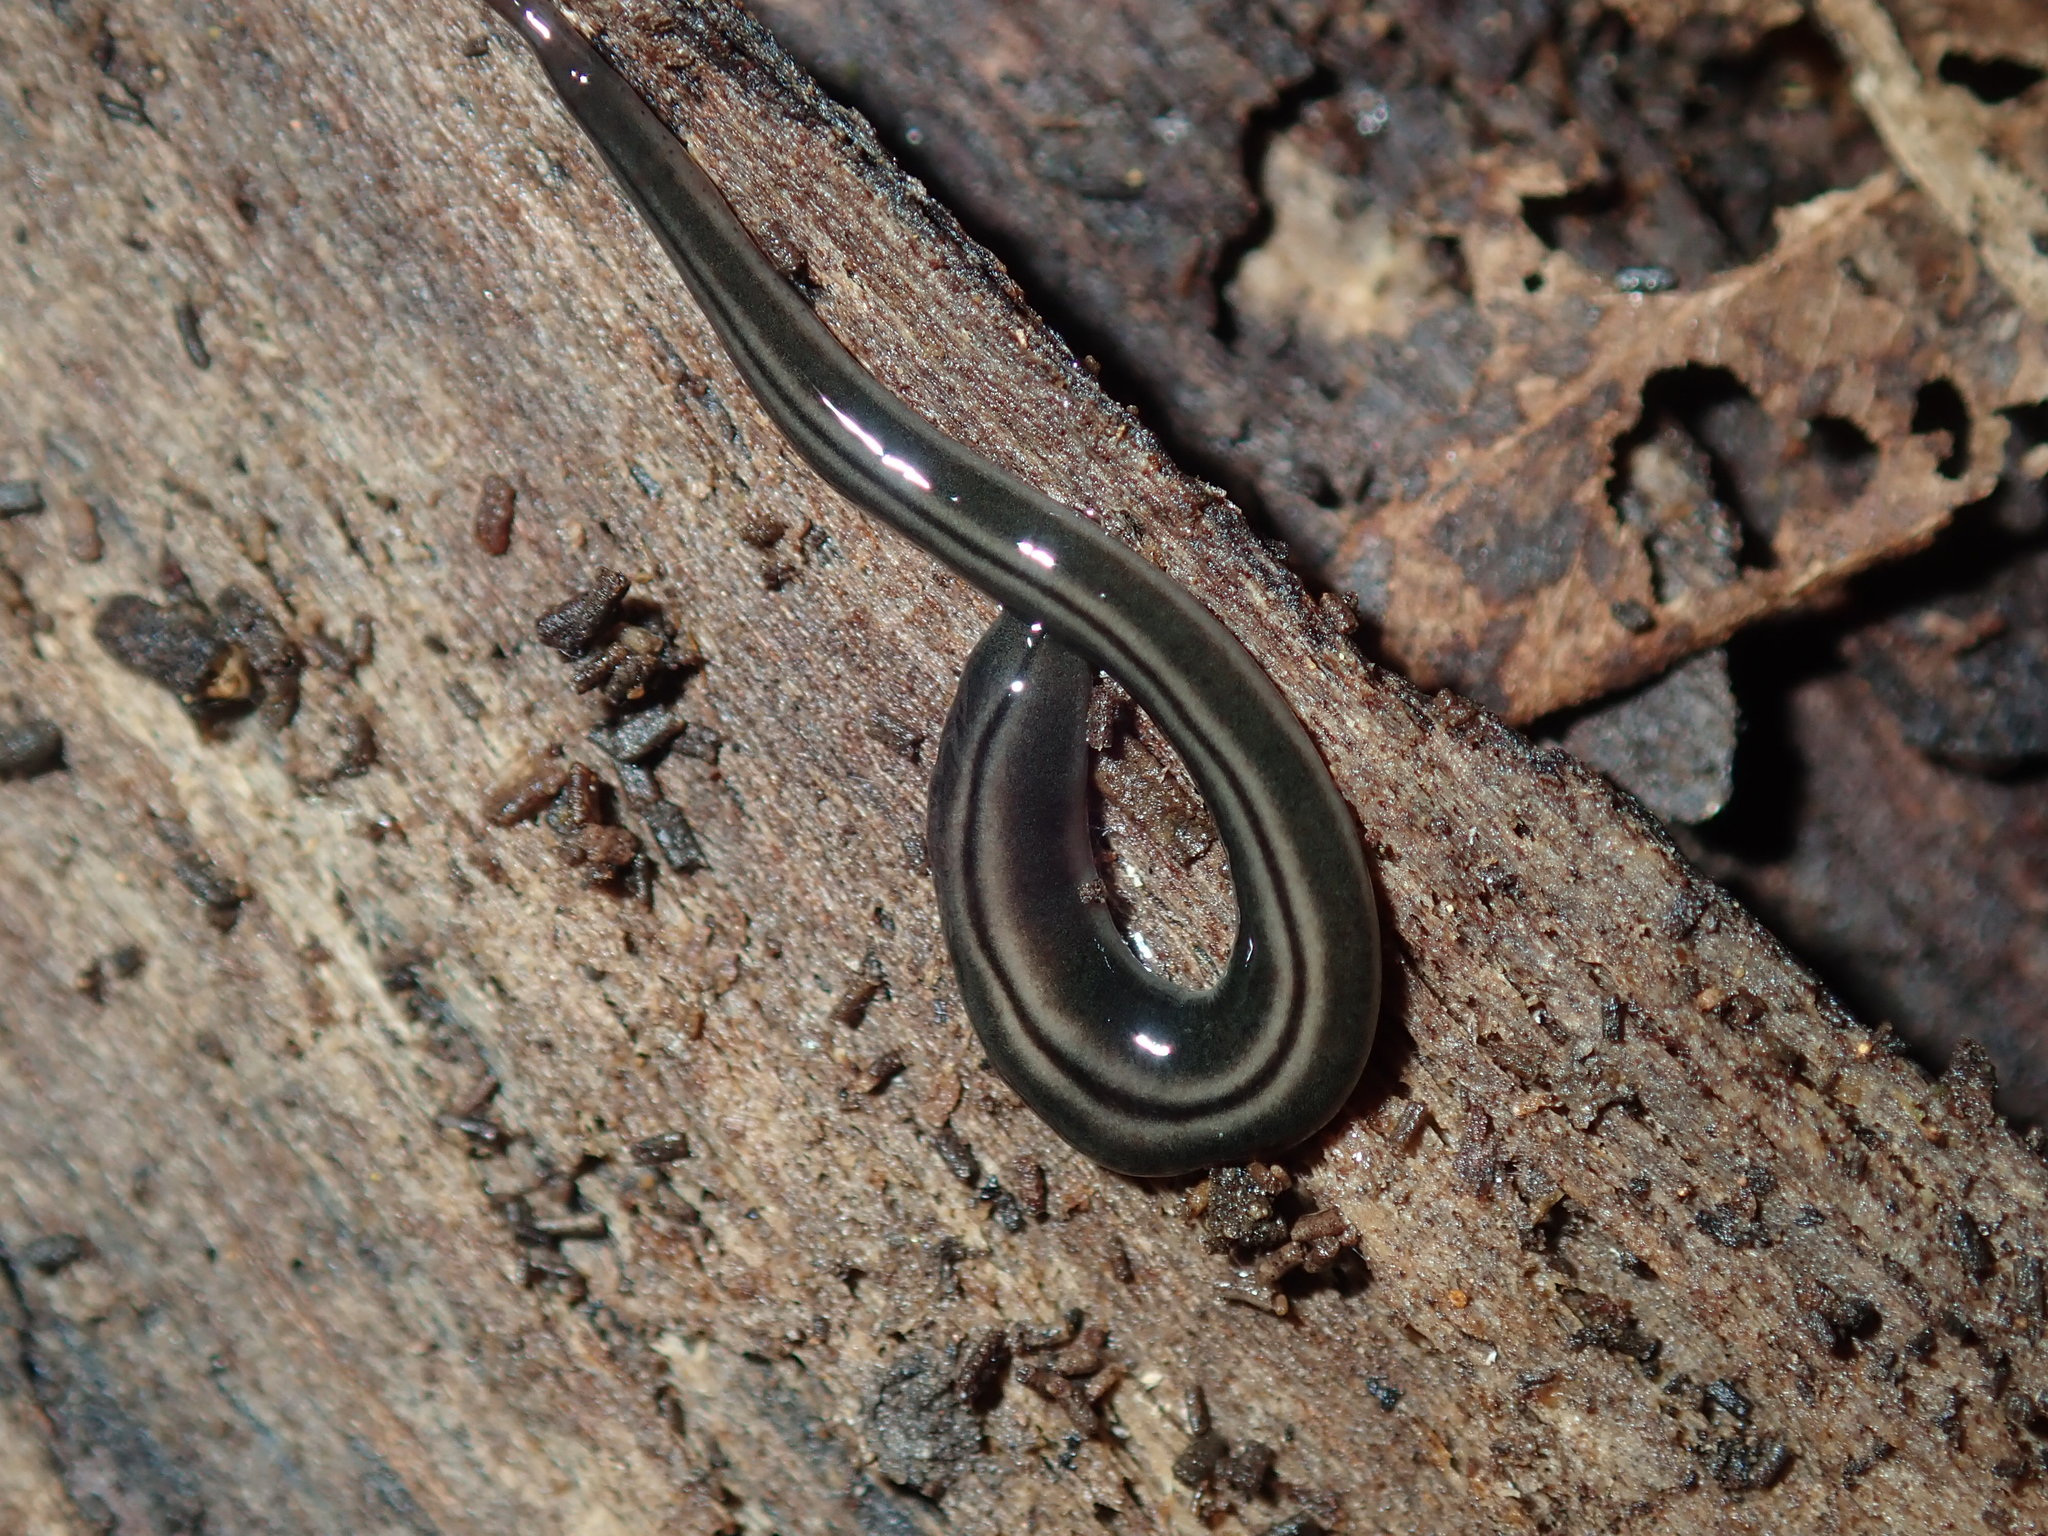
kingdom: Animalia
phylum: Platyhelminthes
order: Tricladida
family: Geoplanidae
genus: Parakontikia
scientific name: Parakontikia ventrolineata
